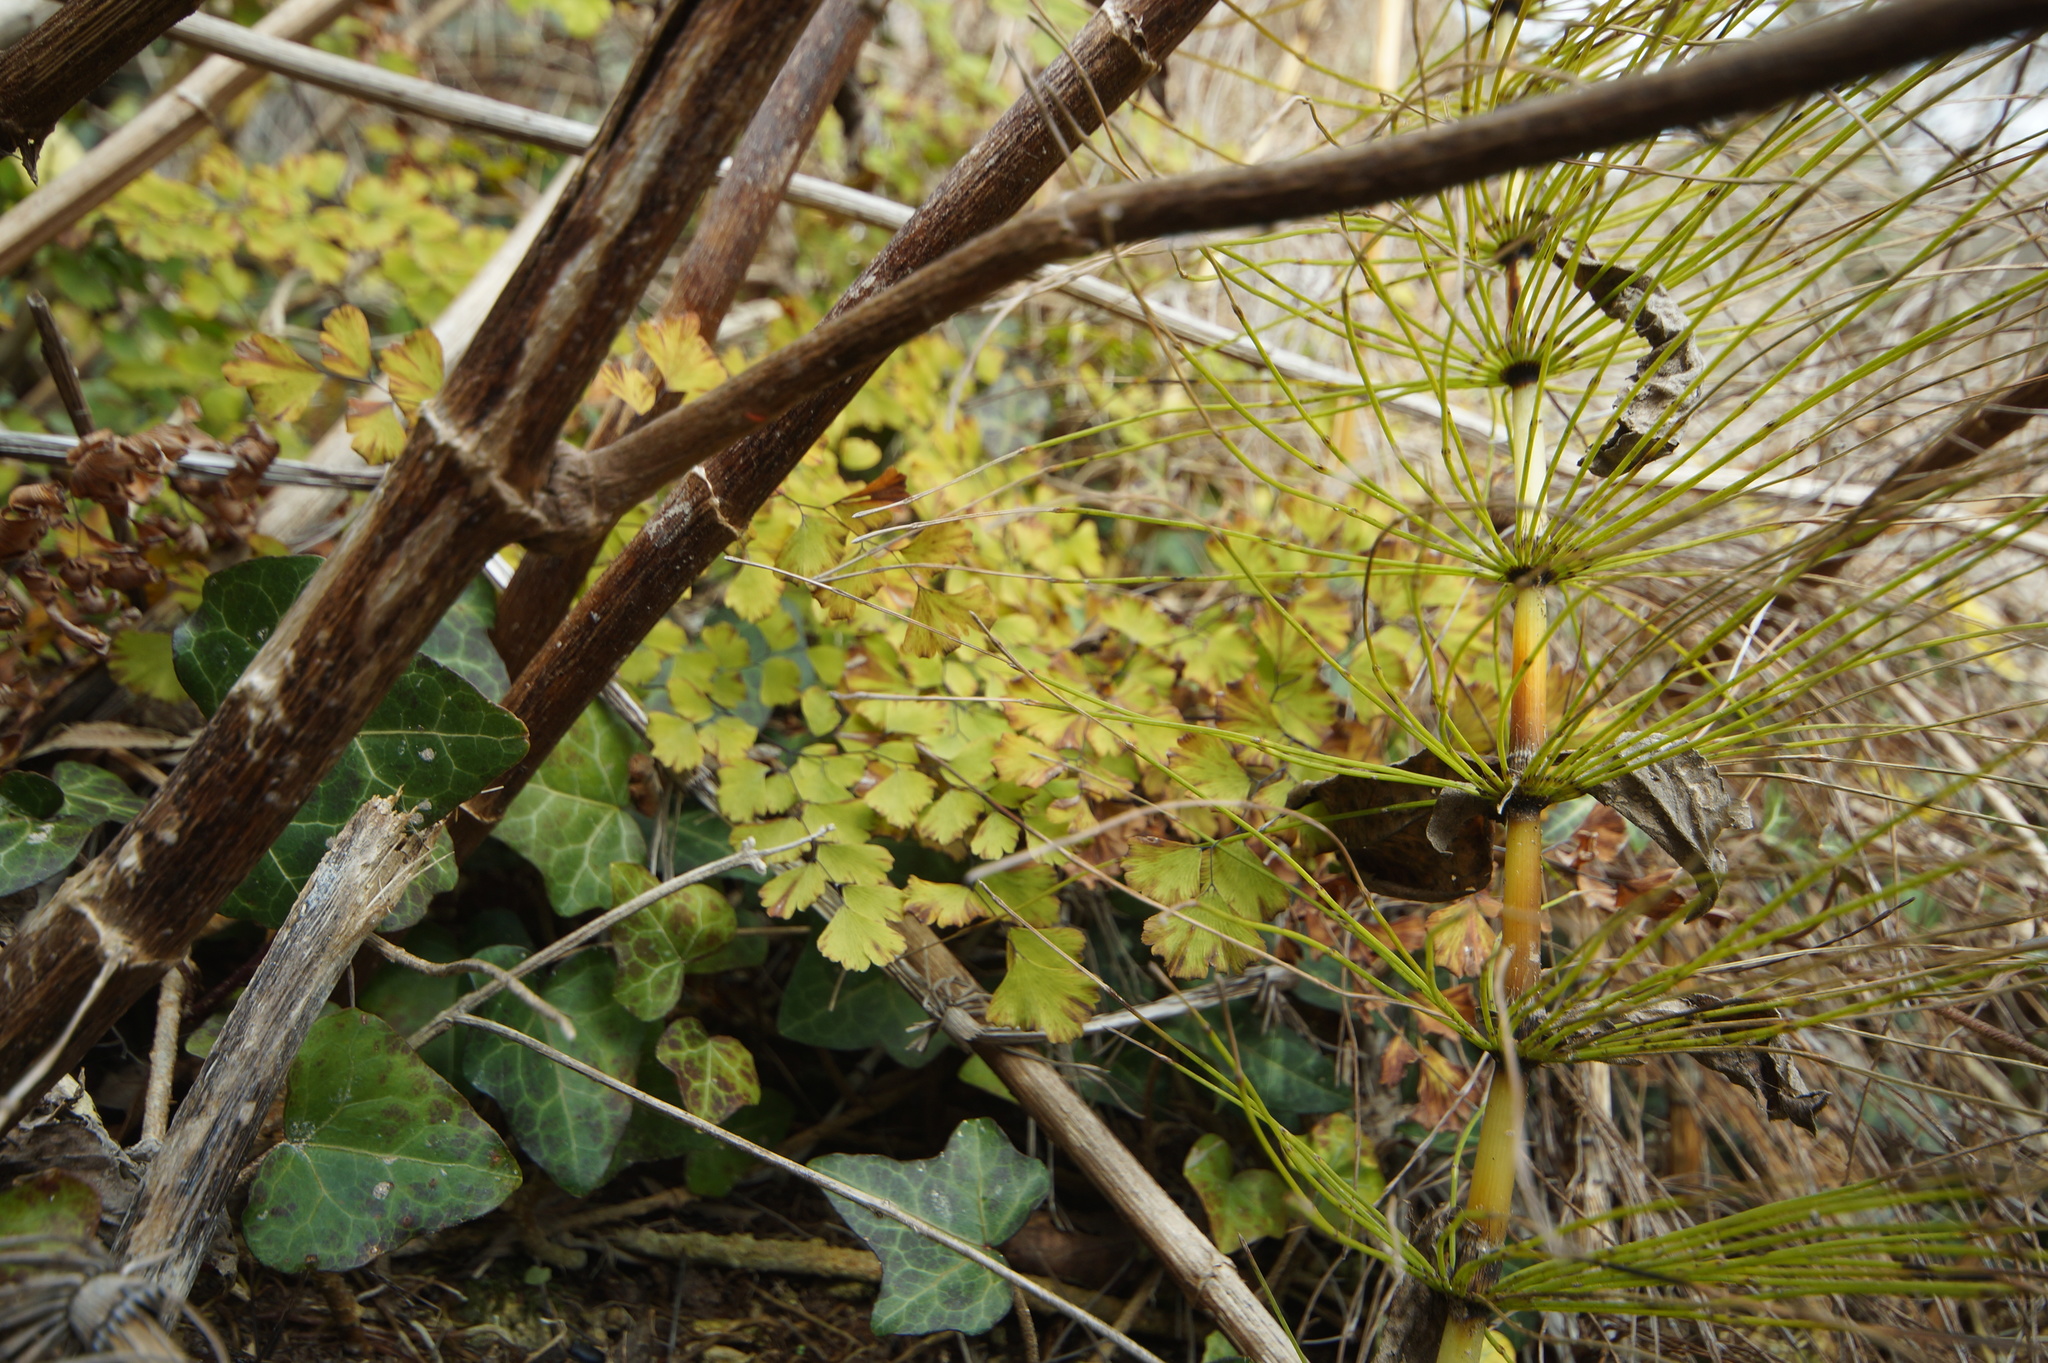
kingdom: Plantae
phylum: Tracheophyta
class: Polypodiopsida
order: Polypodiales
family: Pteridaceae
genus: Adiantum
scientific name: Adiantum capillus-veneris
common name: Maidenhair fern
